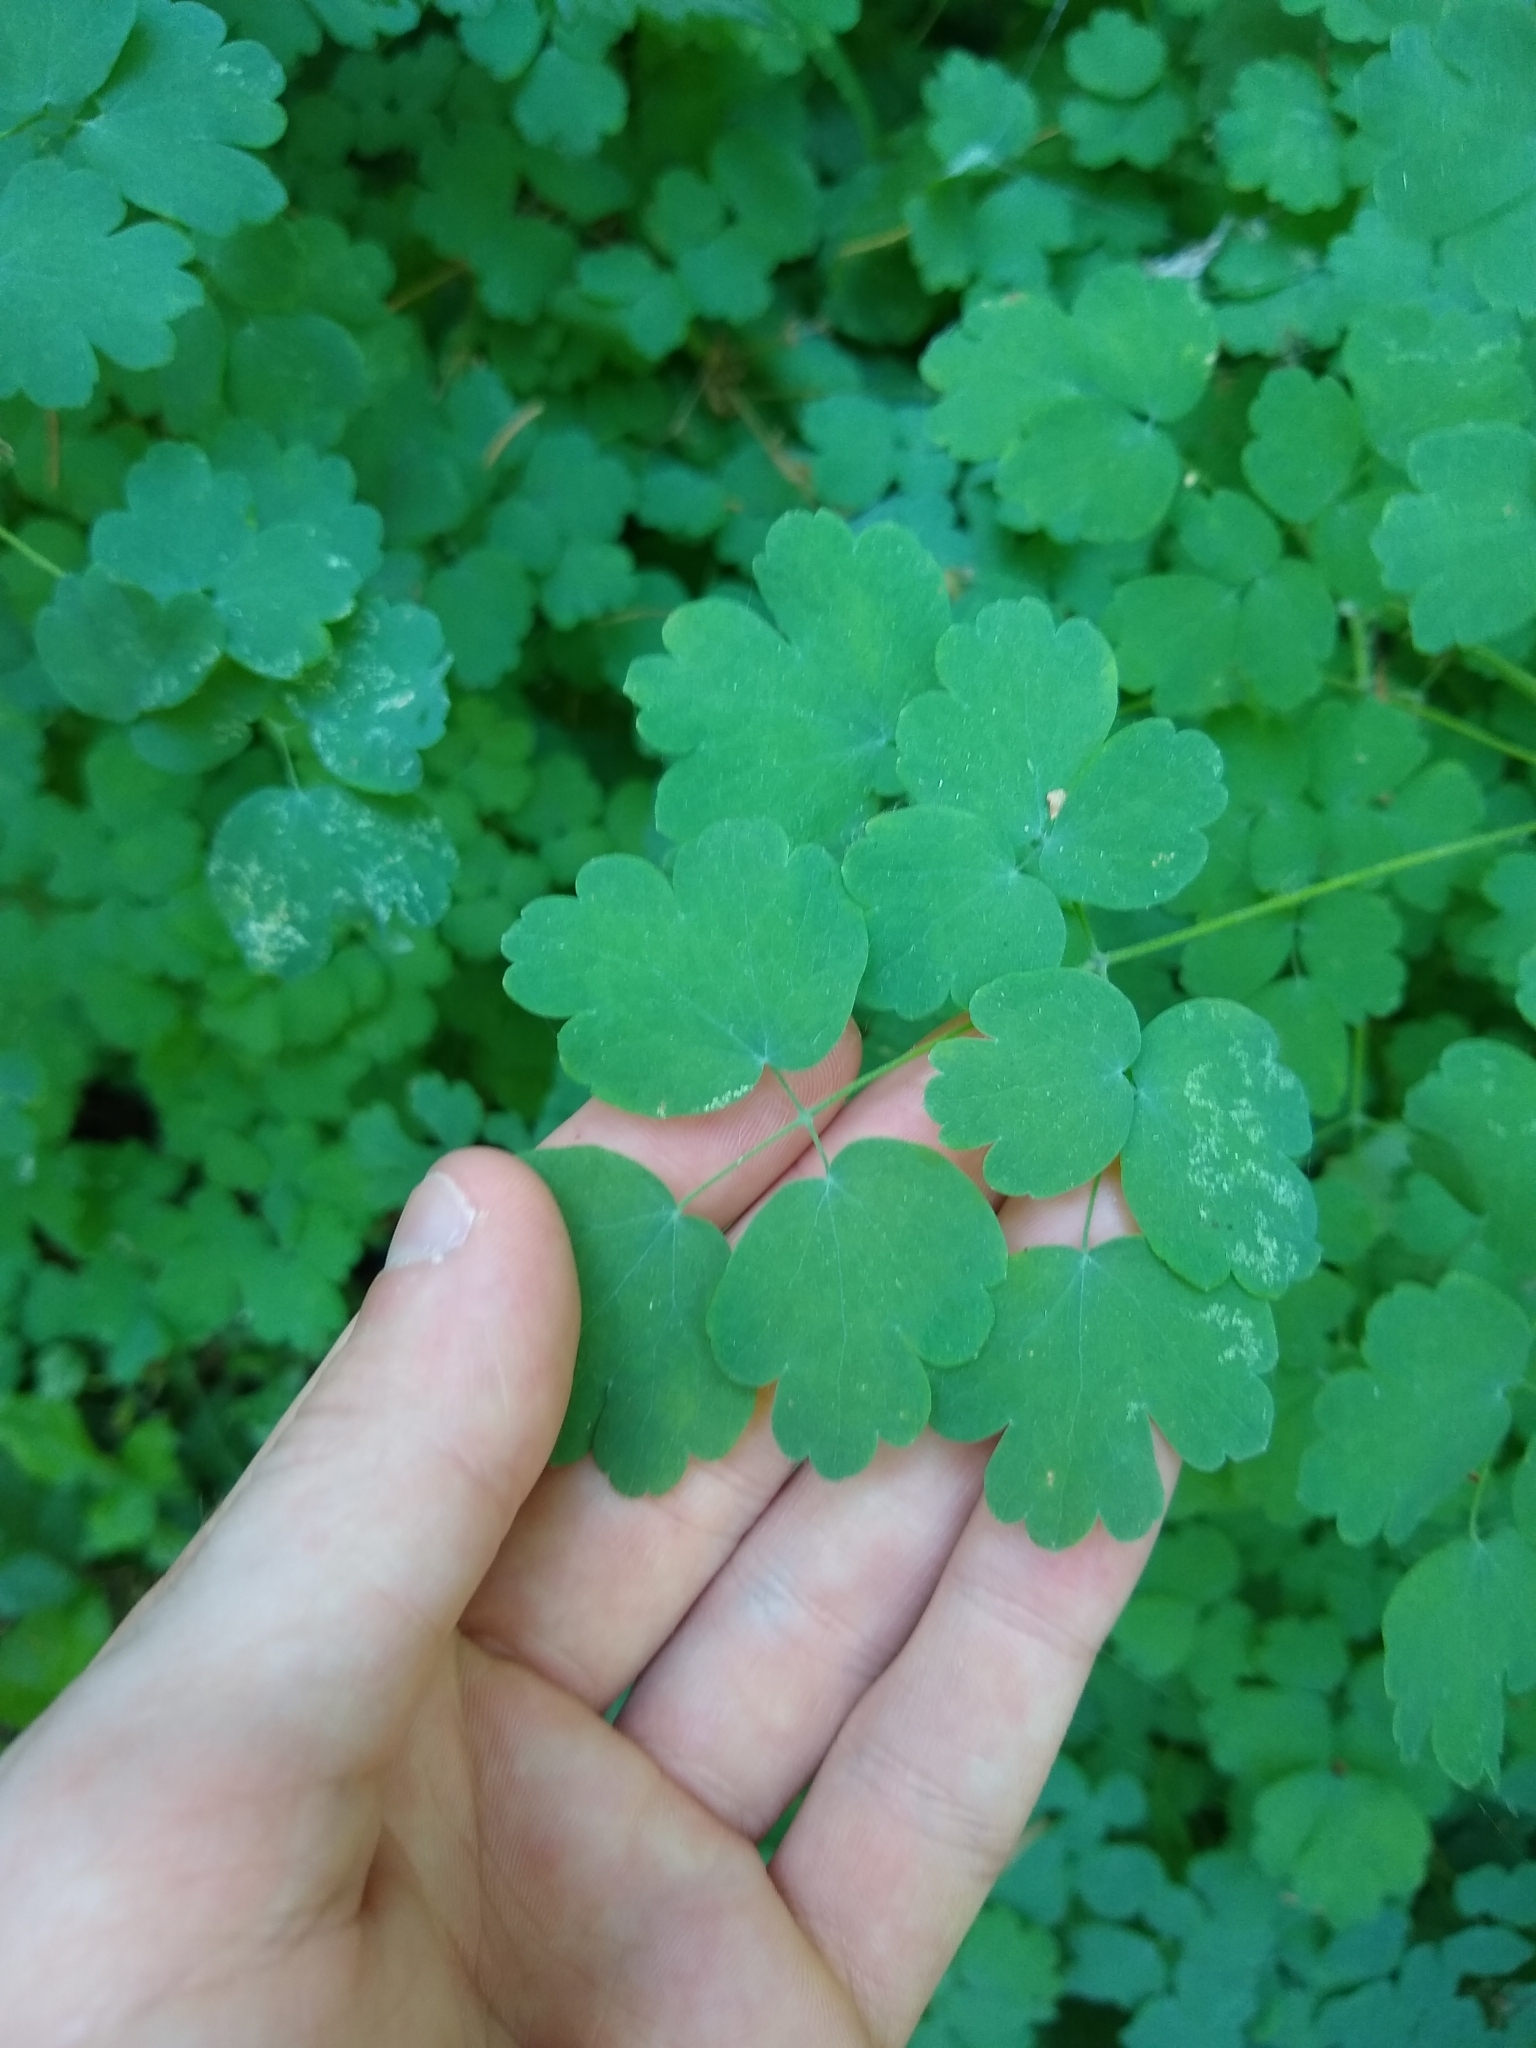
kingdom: Plantae
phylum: Tracheophyta
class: Magnoliopsida
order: Ranunculales
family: Ranunculaceae
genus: Thalictrum
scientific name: Thalictrum
